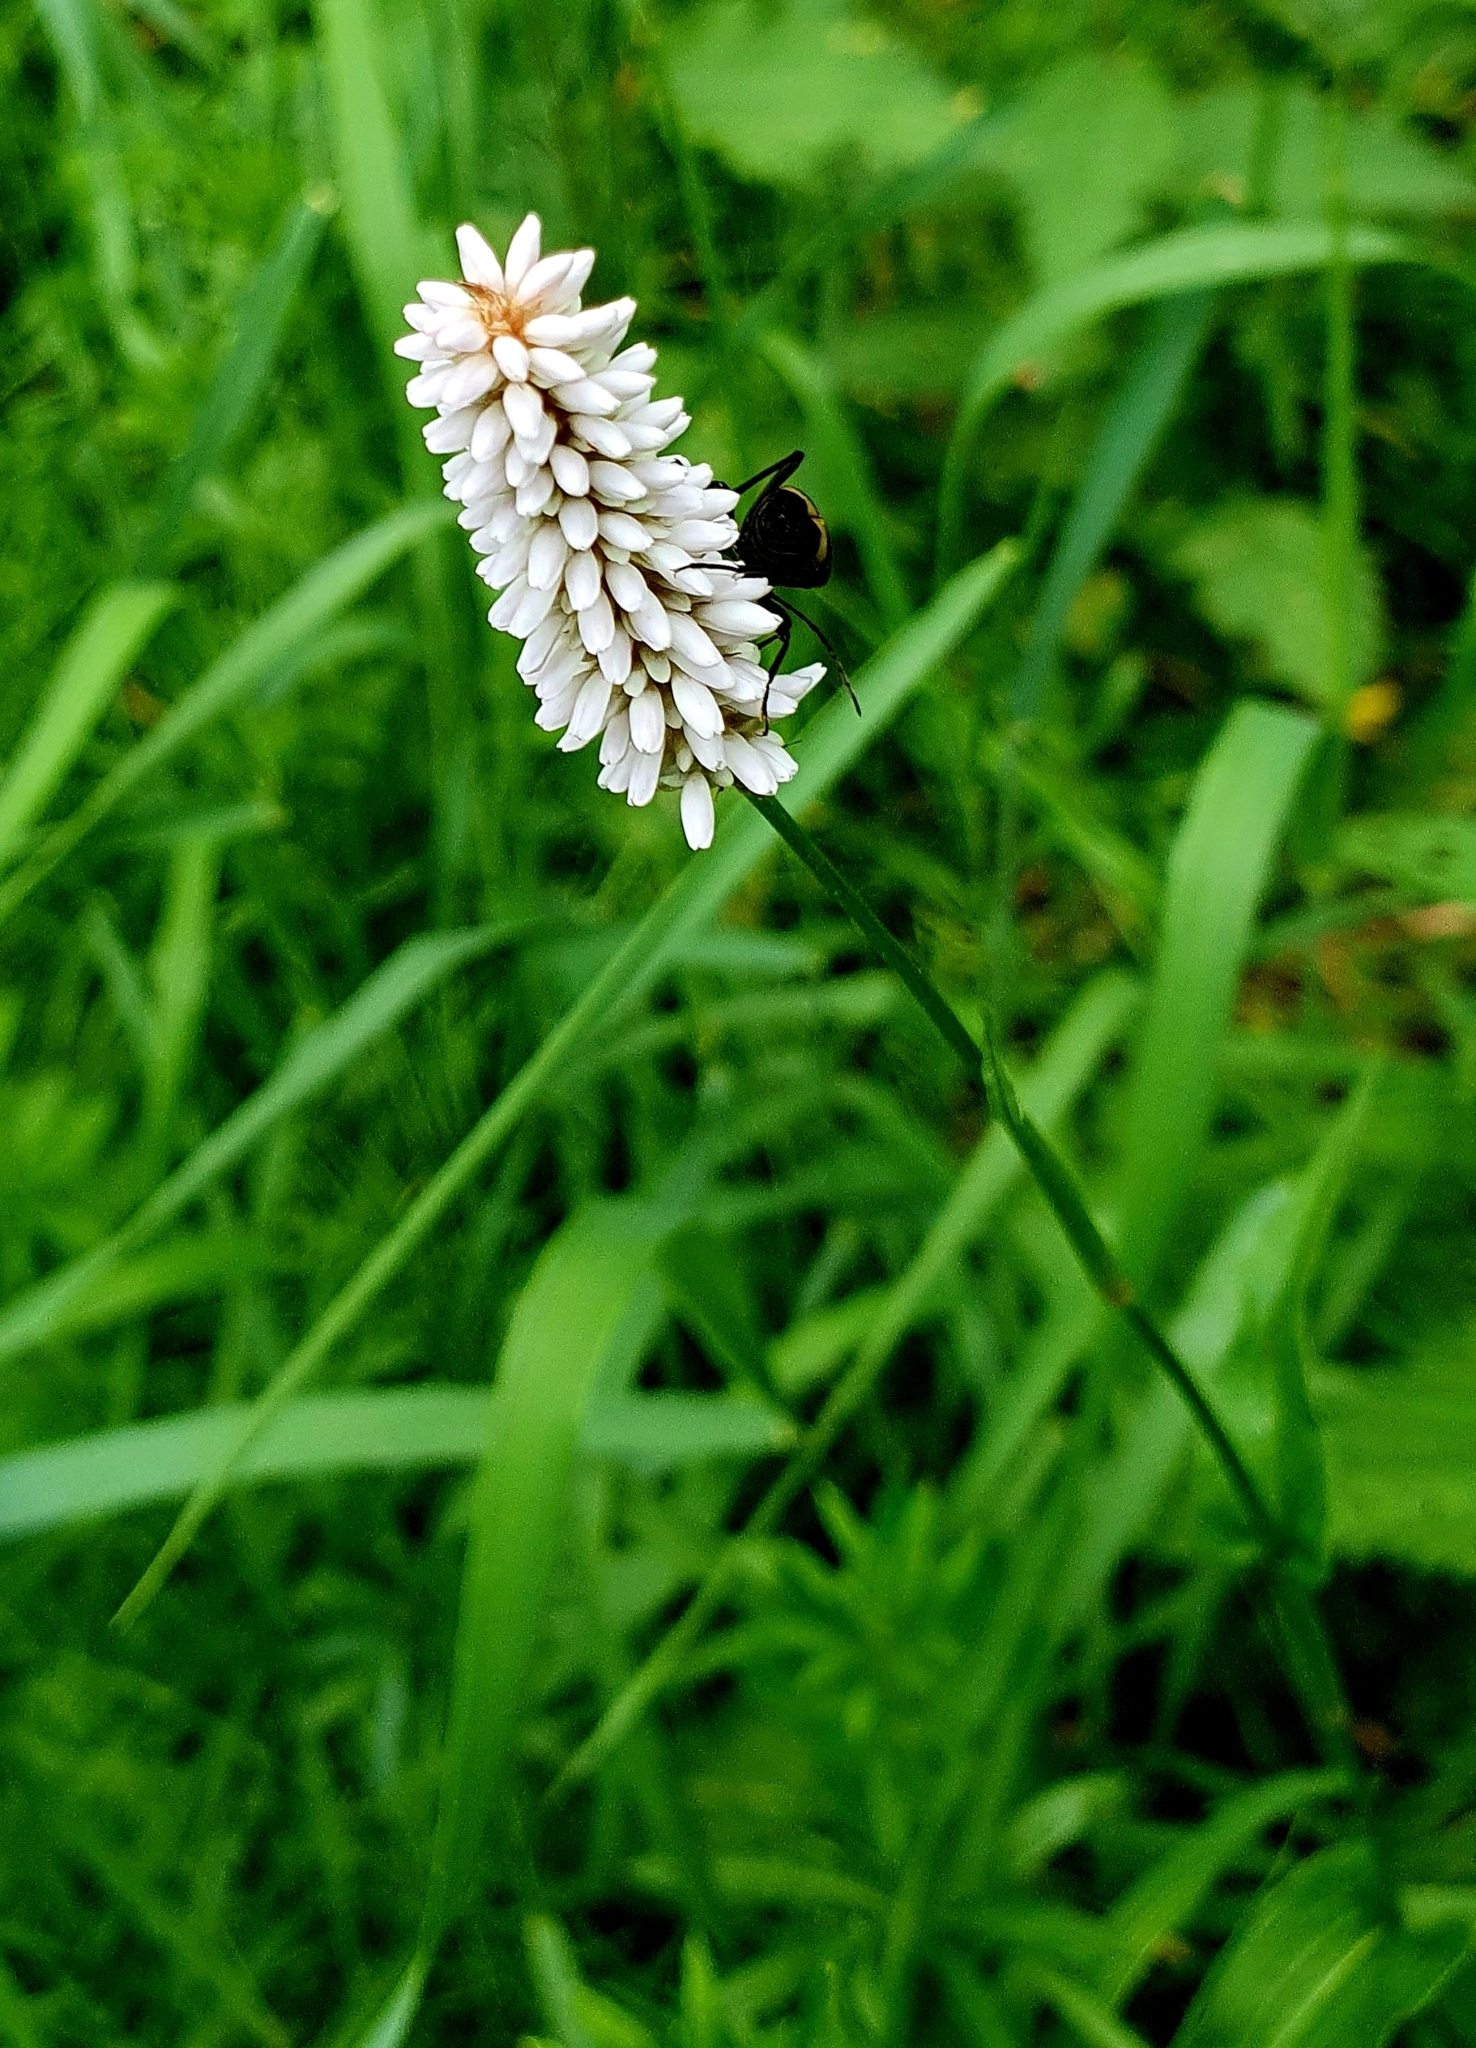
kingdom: Plantae
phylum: Tracheophyta
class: Magnoliopsida
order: Caryophyllales
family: Polygonaceae
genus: Bistorta
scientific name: Bistorta officinalis
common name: Common bistort
